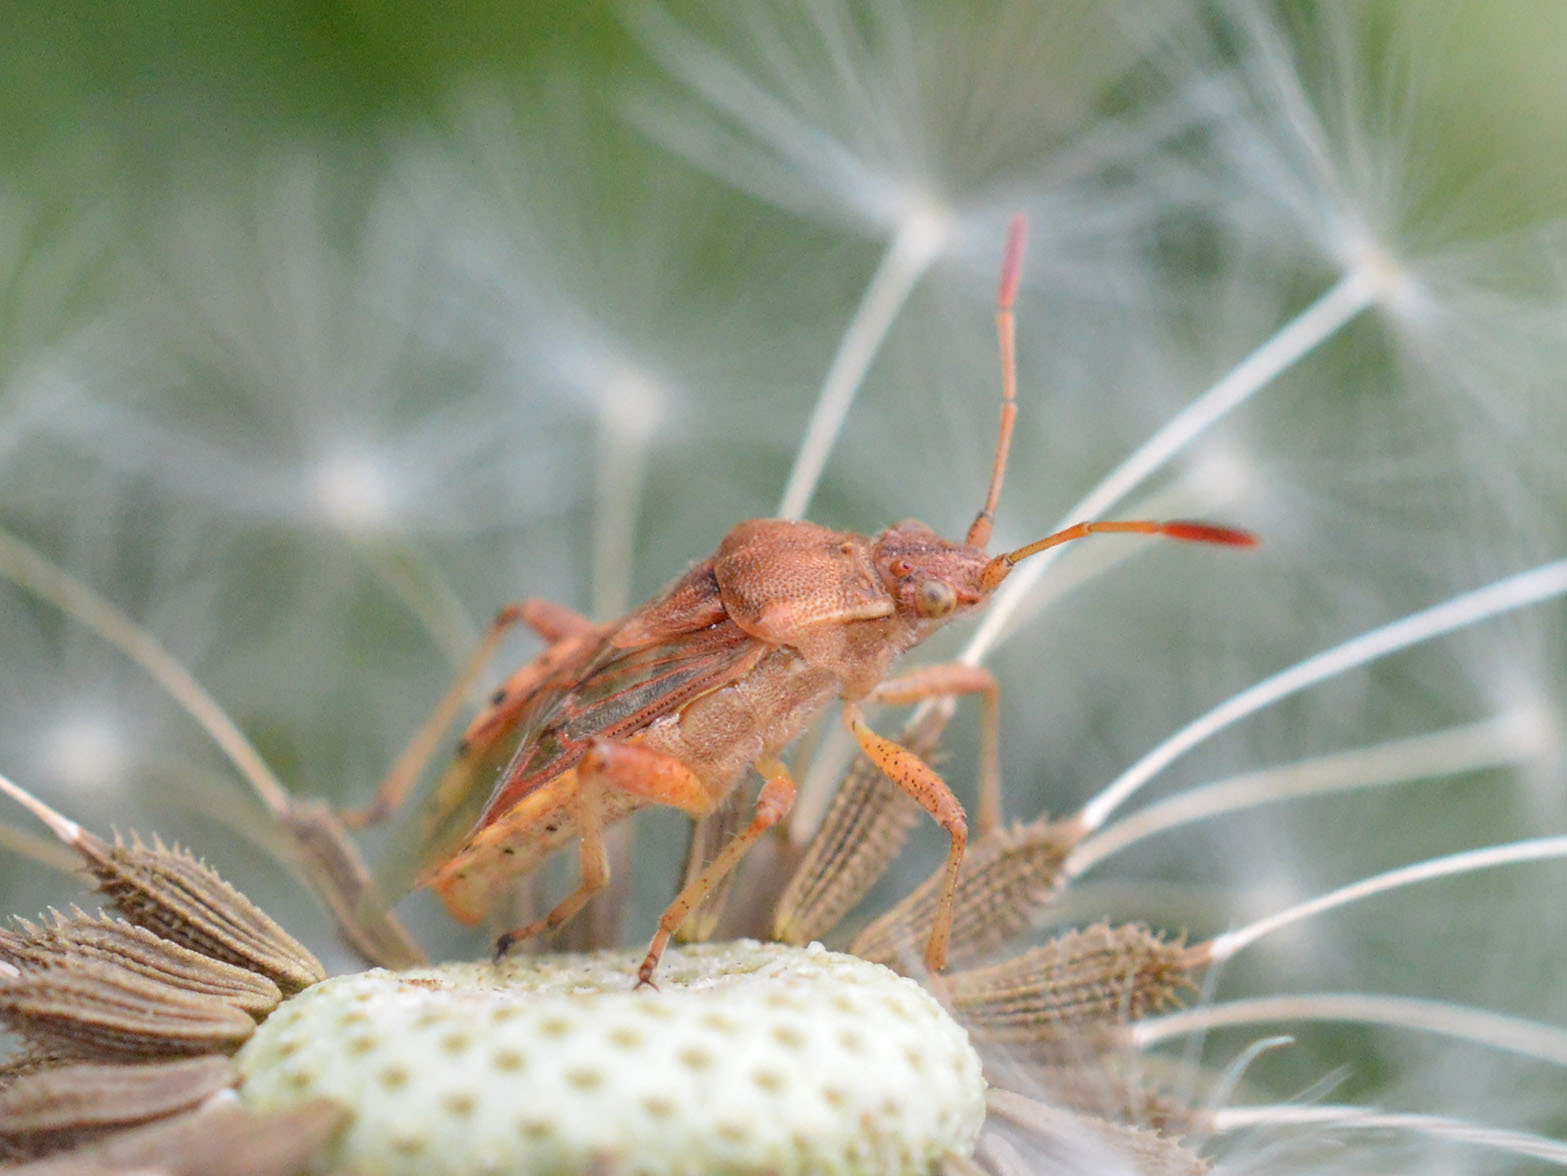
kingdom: Animalia
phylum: Arthropoda
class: Insecta
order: Hemiptera
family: Rhopalidae
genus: Stictopleurus
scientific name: Stictopleurus abutilon
